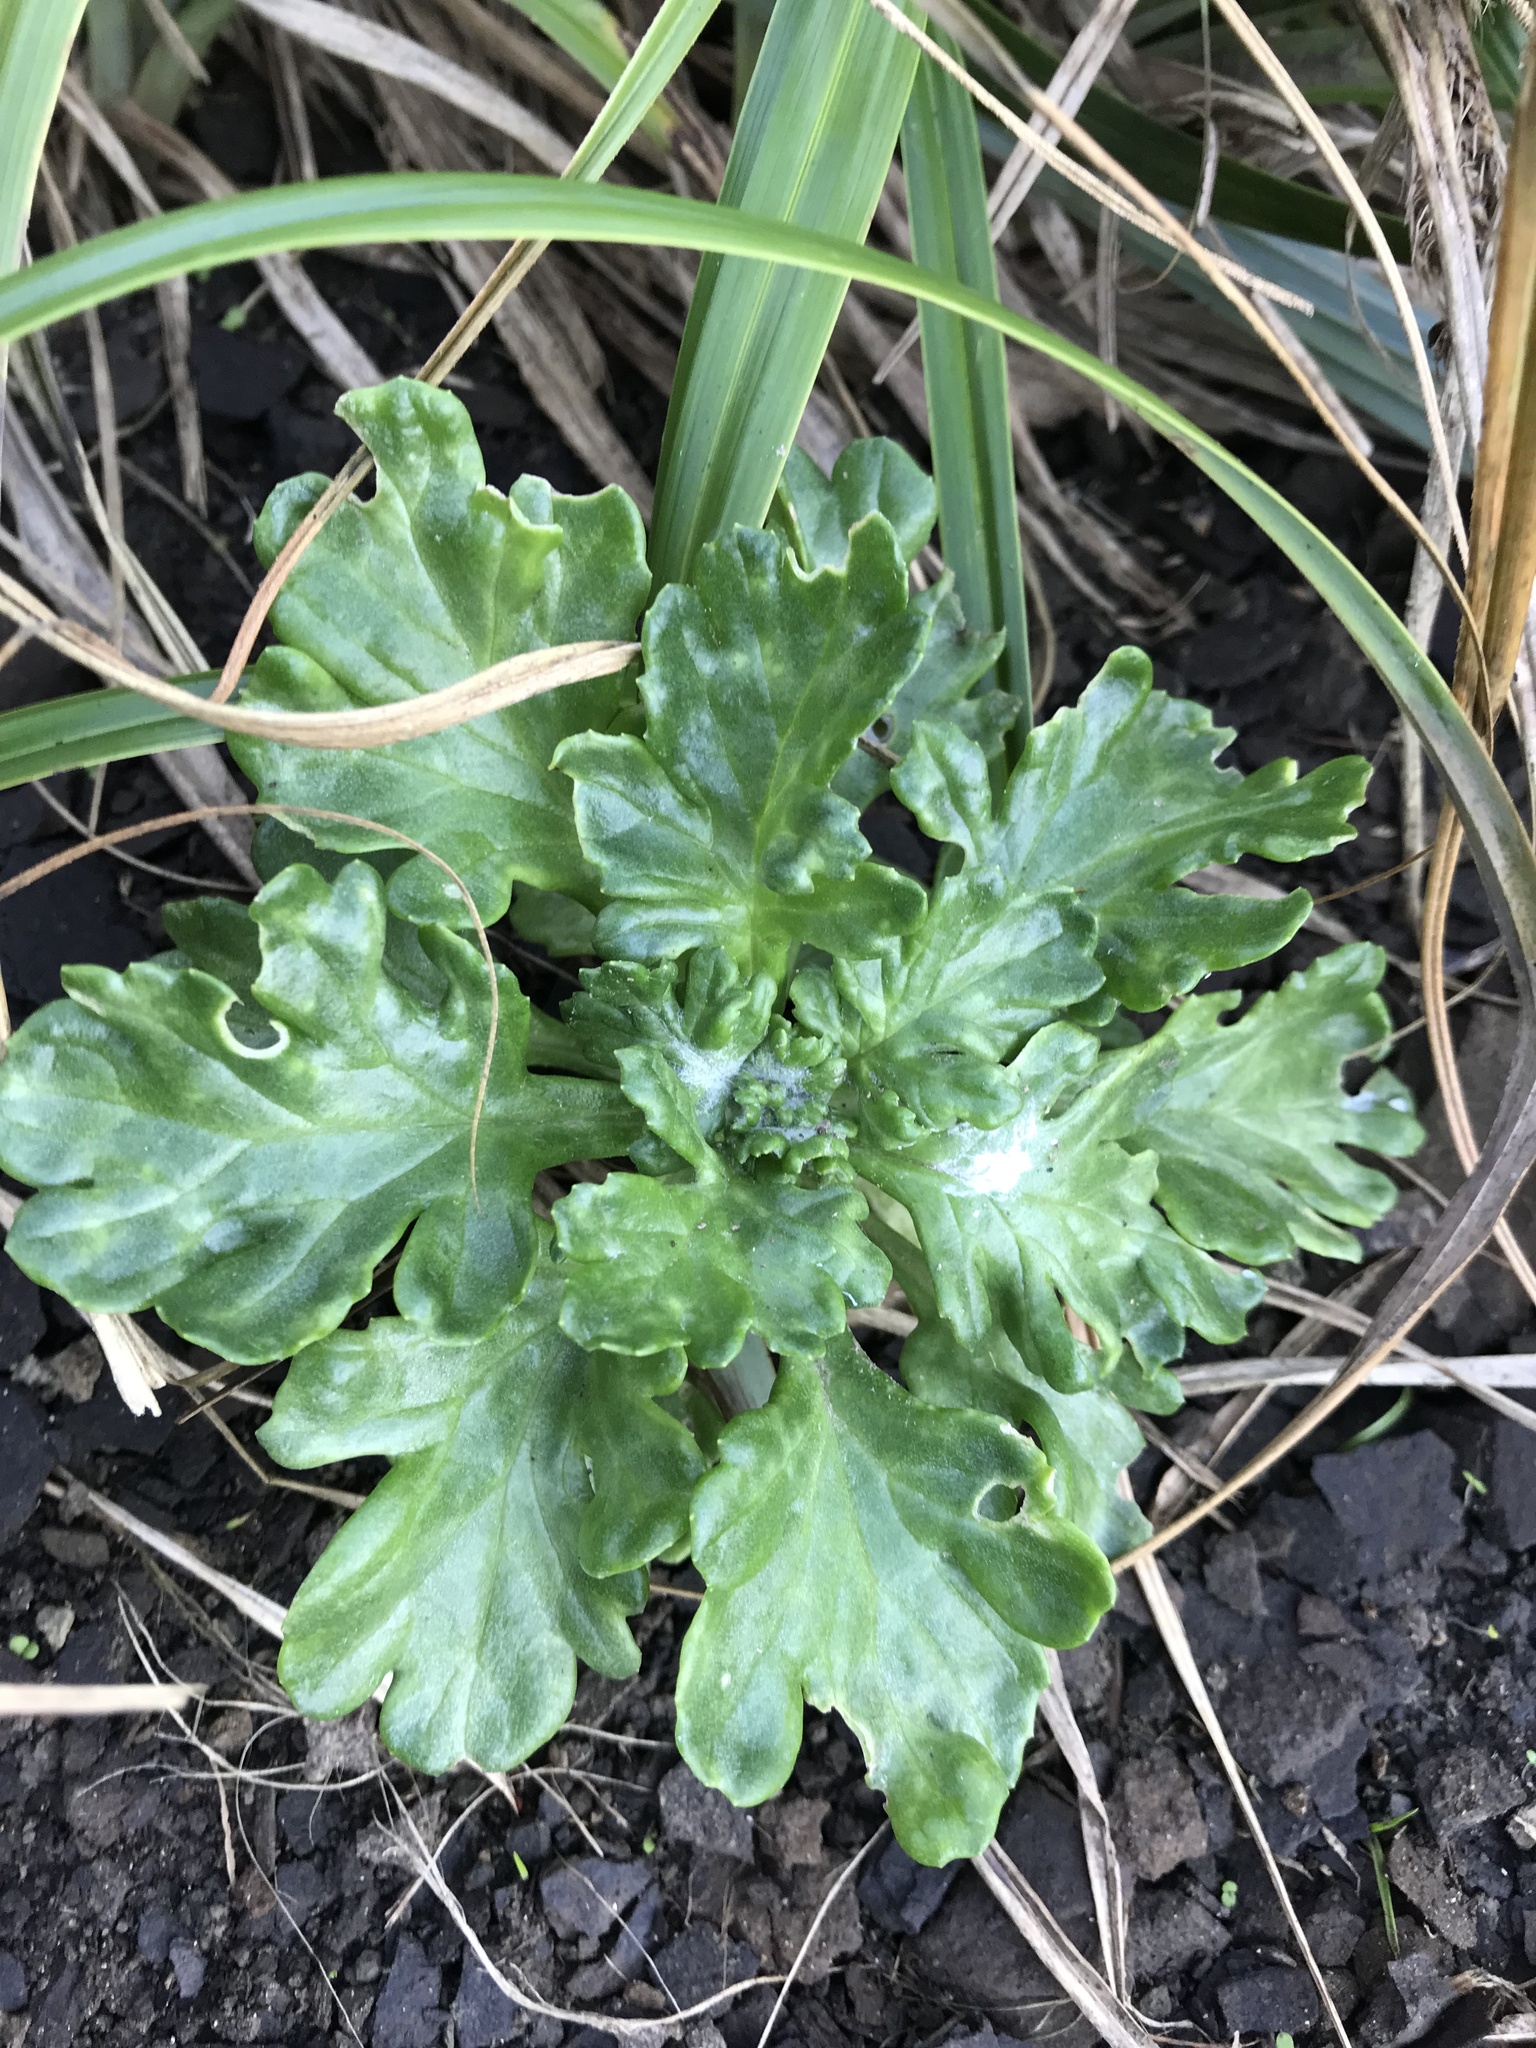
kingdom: Plantae
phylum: Tracheophyta
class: Magnoliopsida
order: Asterales
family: Asteraceae
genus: Senecio
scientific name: Senecio radiolatus
